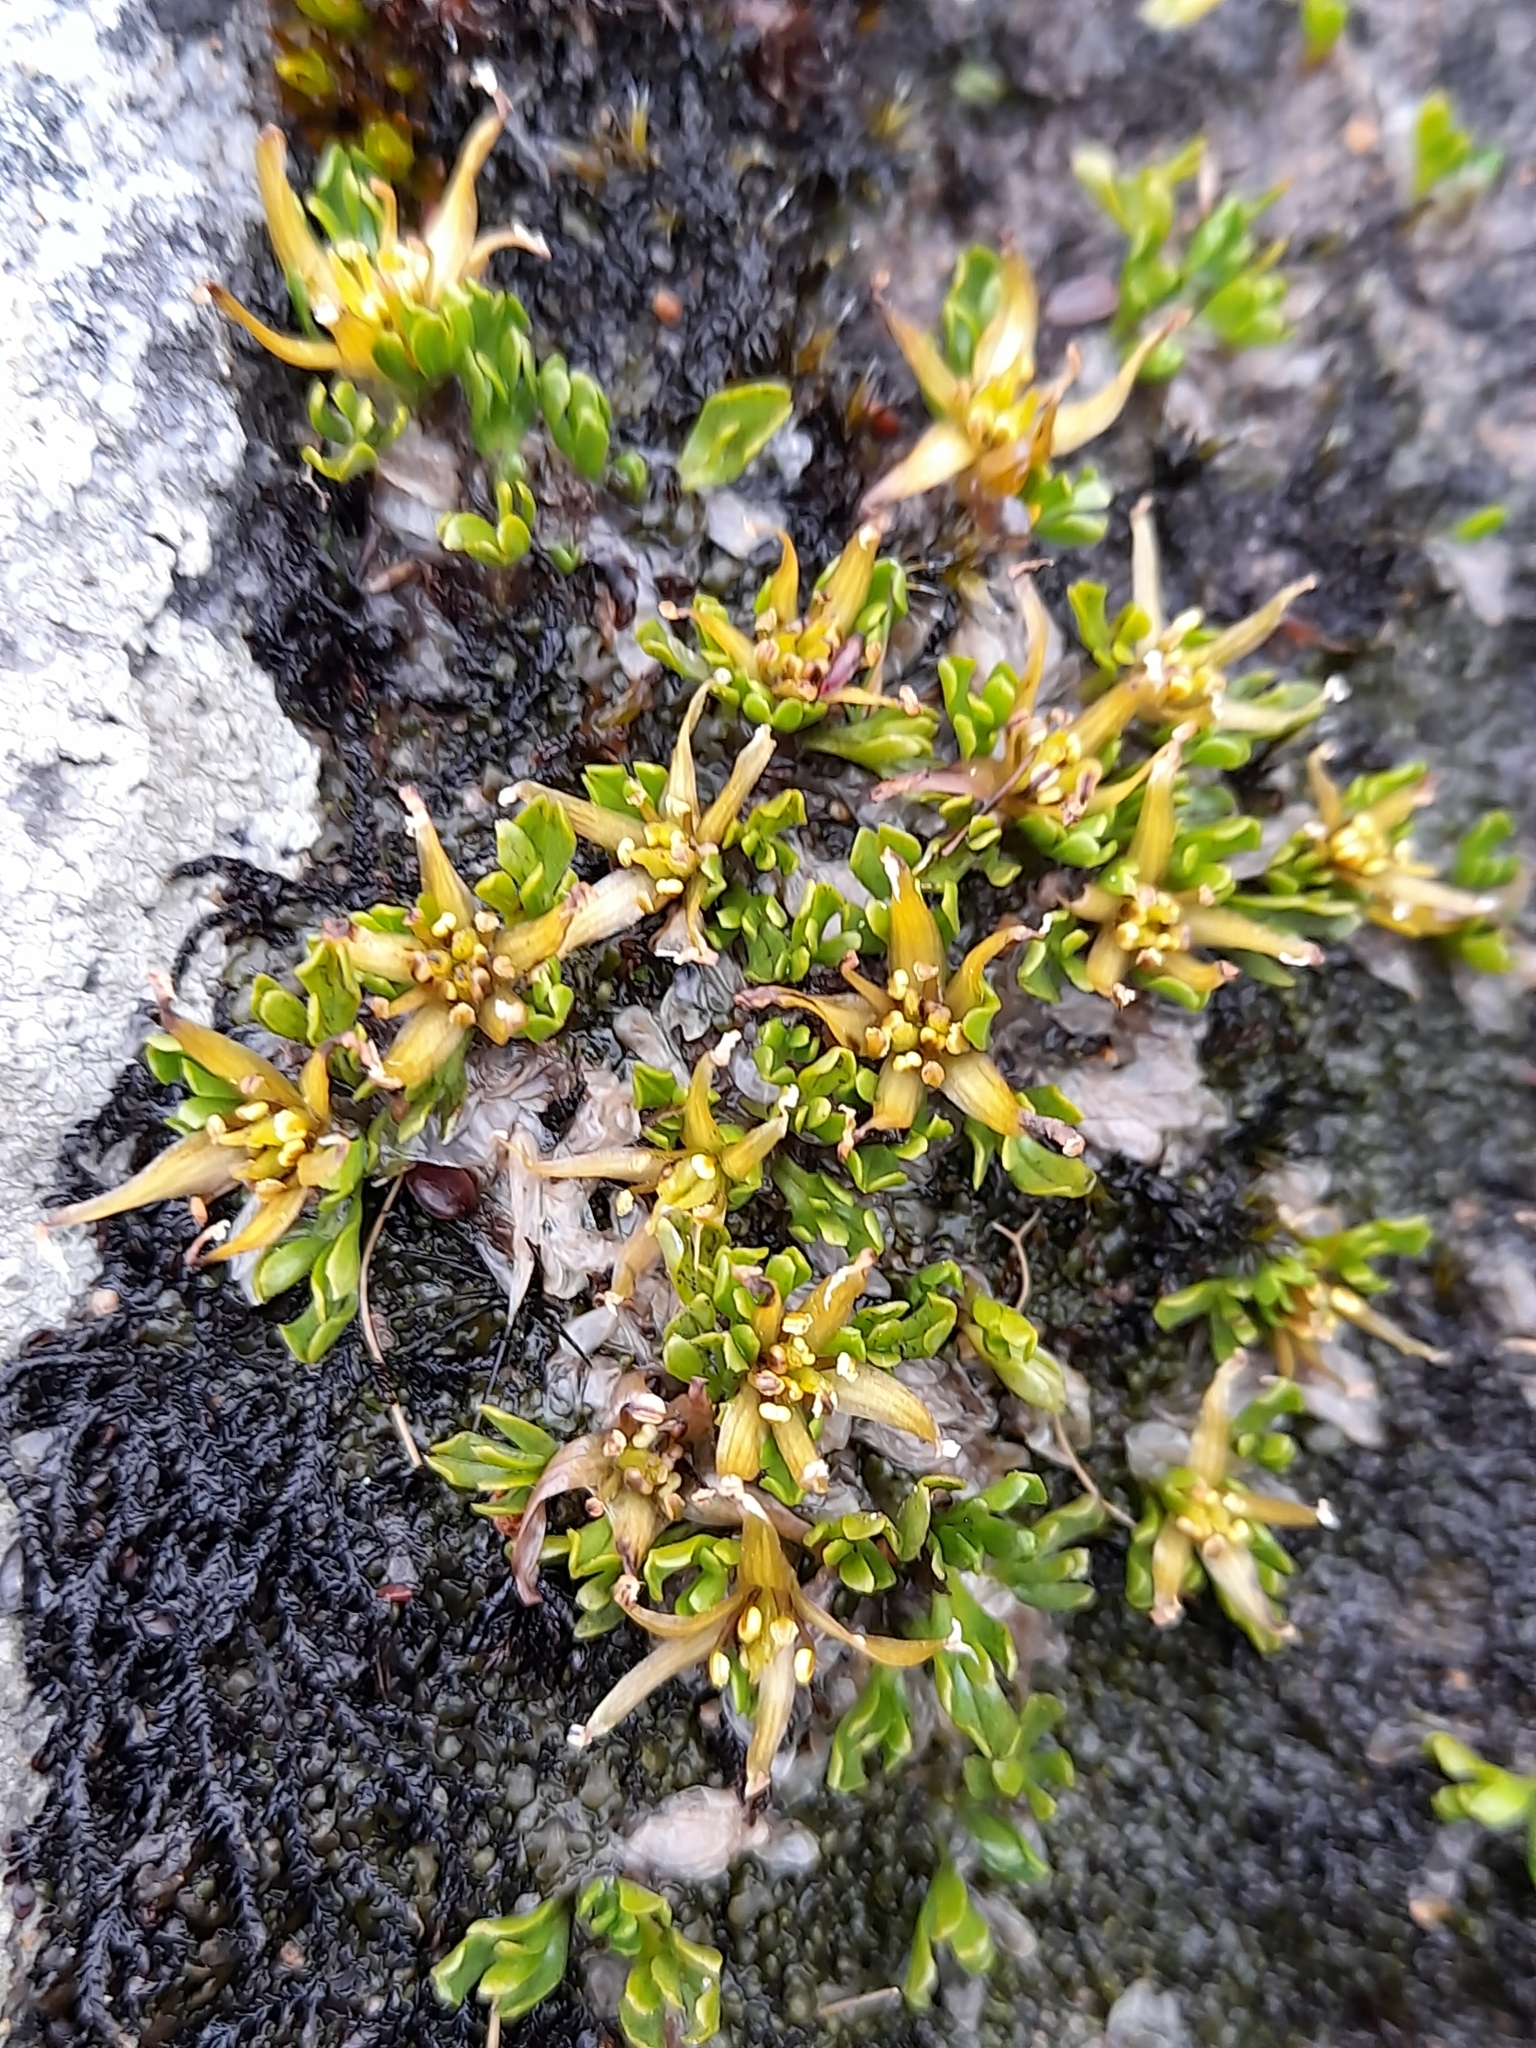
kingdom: Plantae
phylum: Tracheophyta
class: Magnoliopsida
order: Ranunculales
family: Ranunculaceae
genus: Caltha
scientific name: Caltha appendiculata
